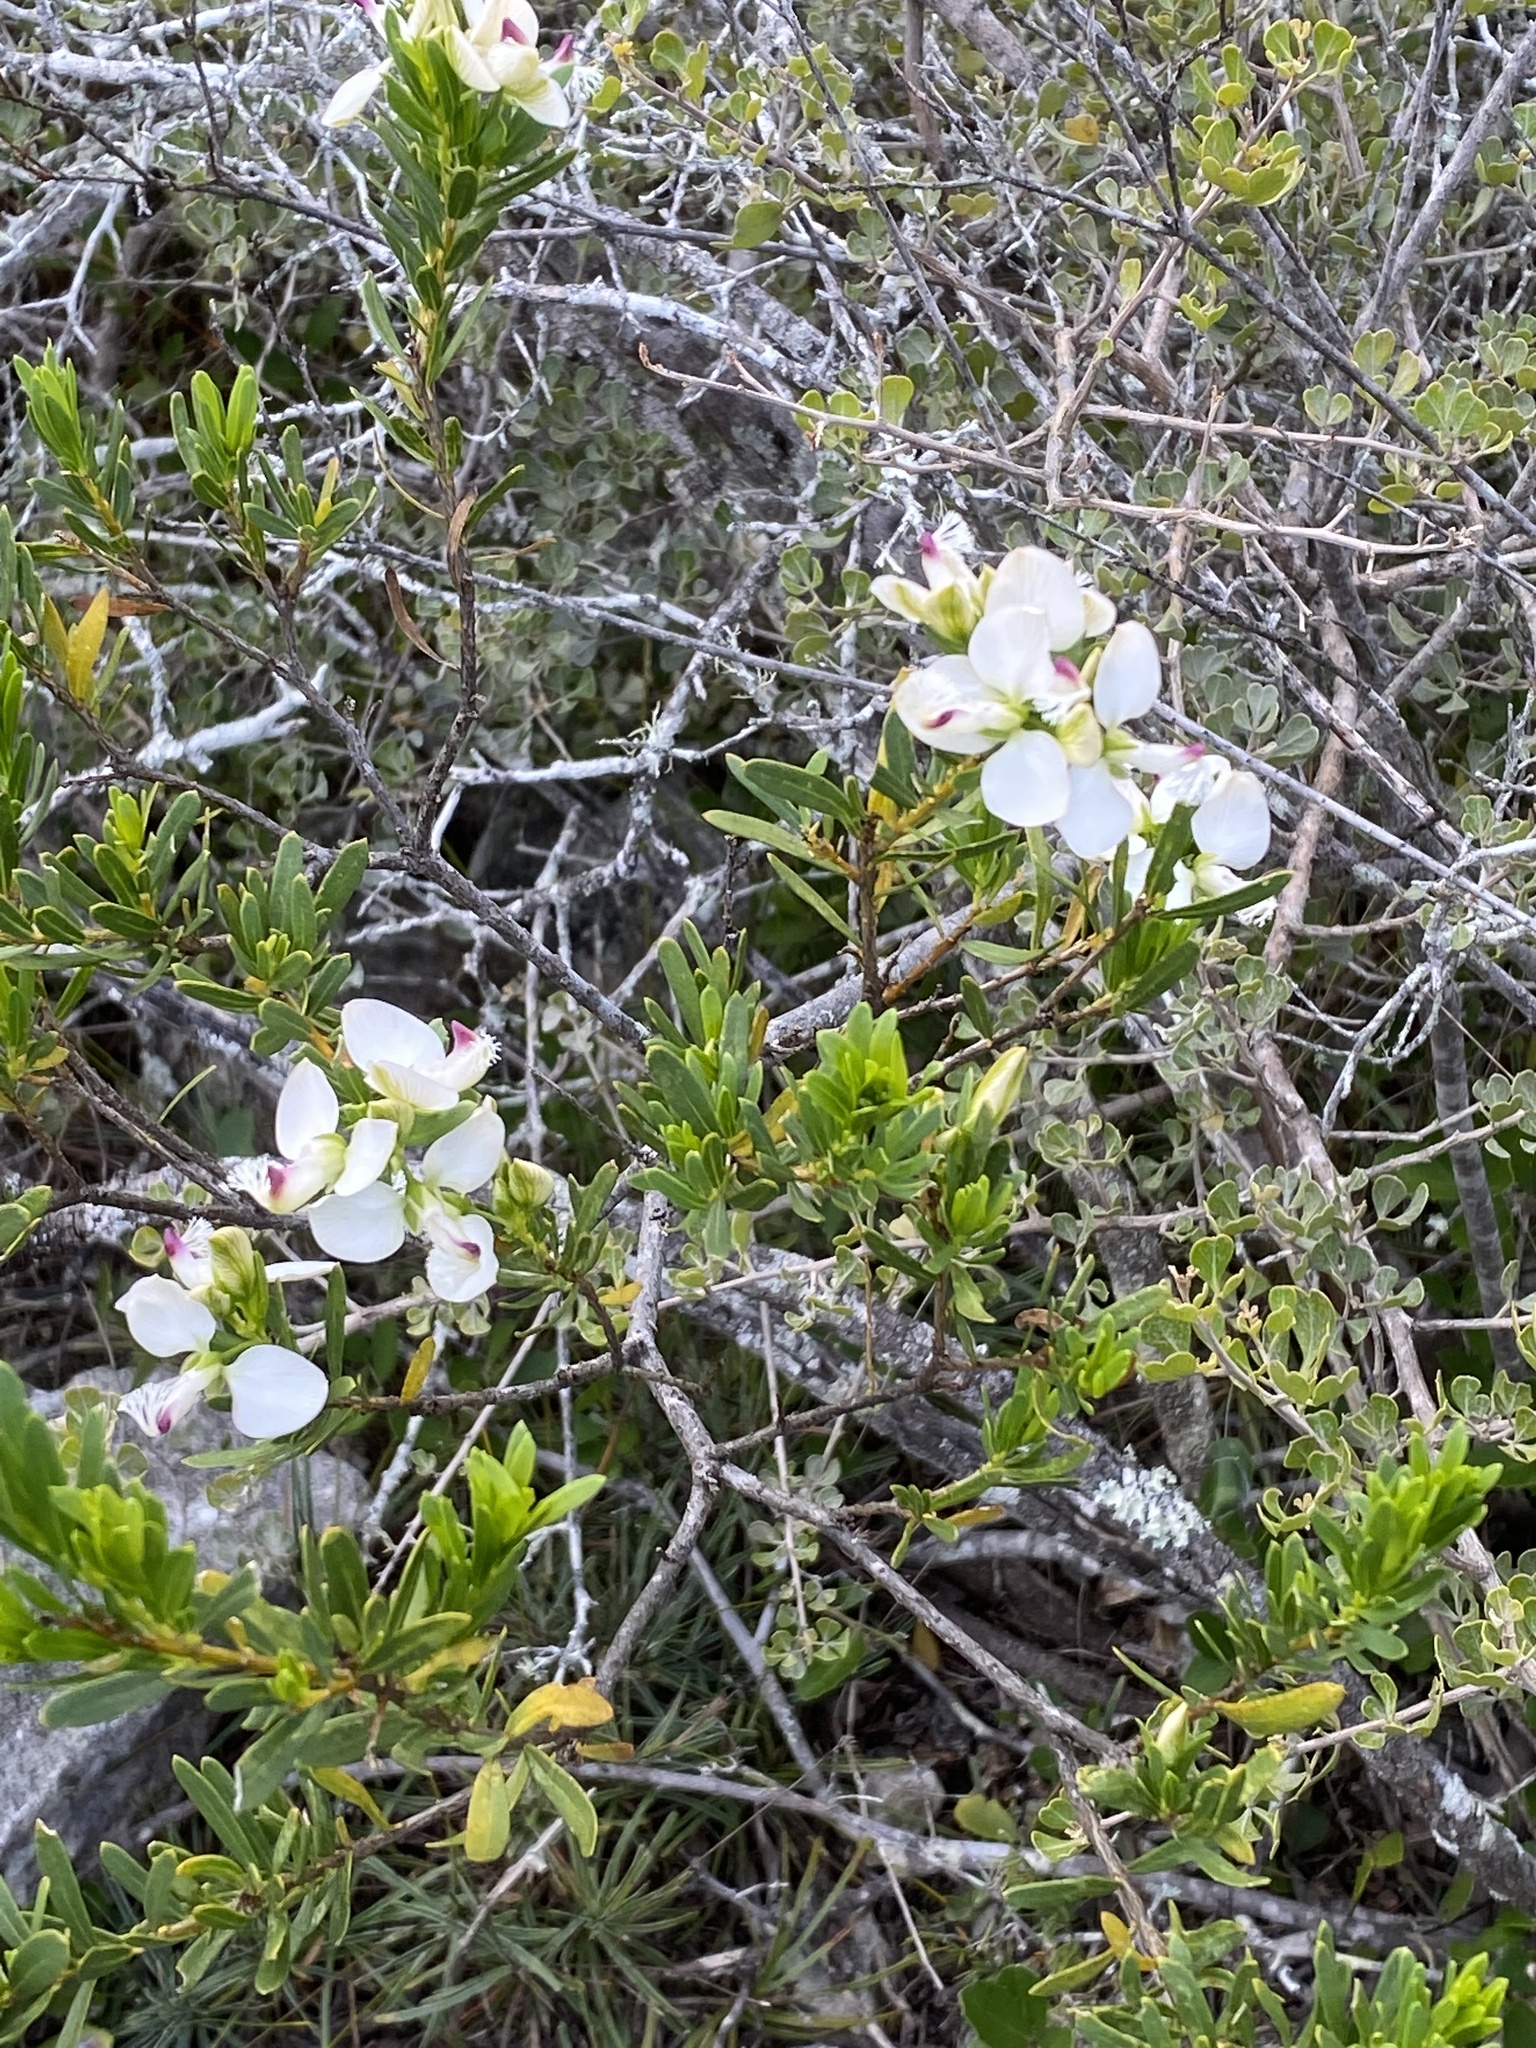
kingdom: Plantae
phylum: Tracheophyta
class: Magnoliopsida
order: Fabales
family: Polygalaceae
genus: Polygala
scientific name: Polygala myrtifolia
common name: Myrtle-leaf milkwort
